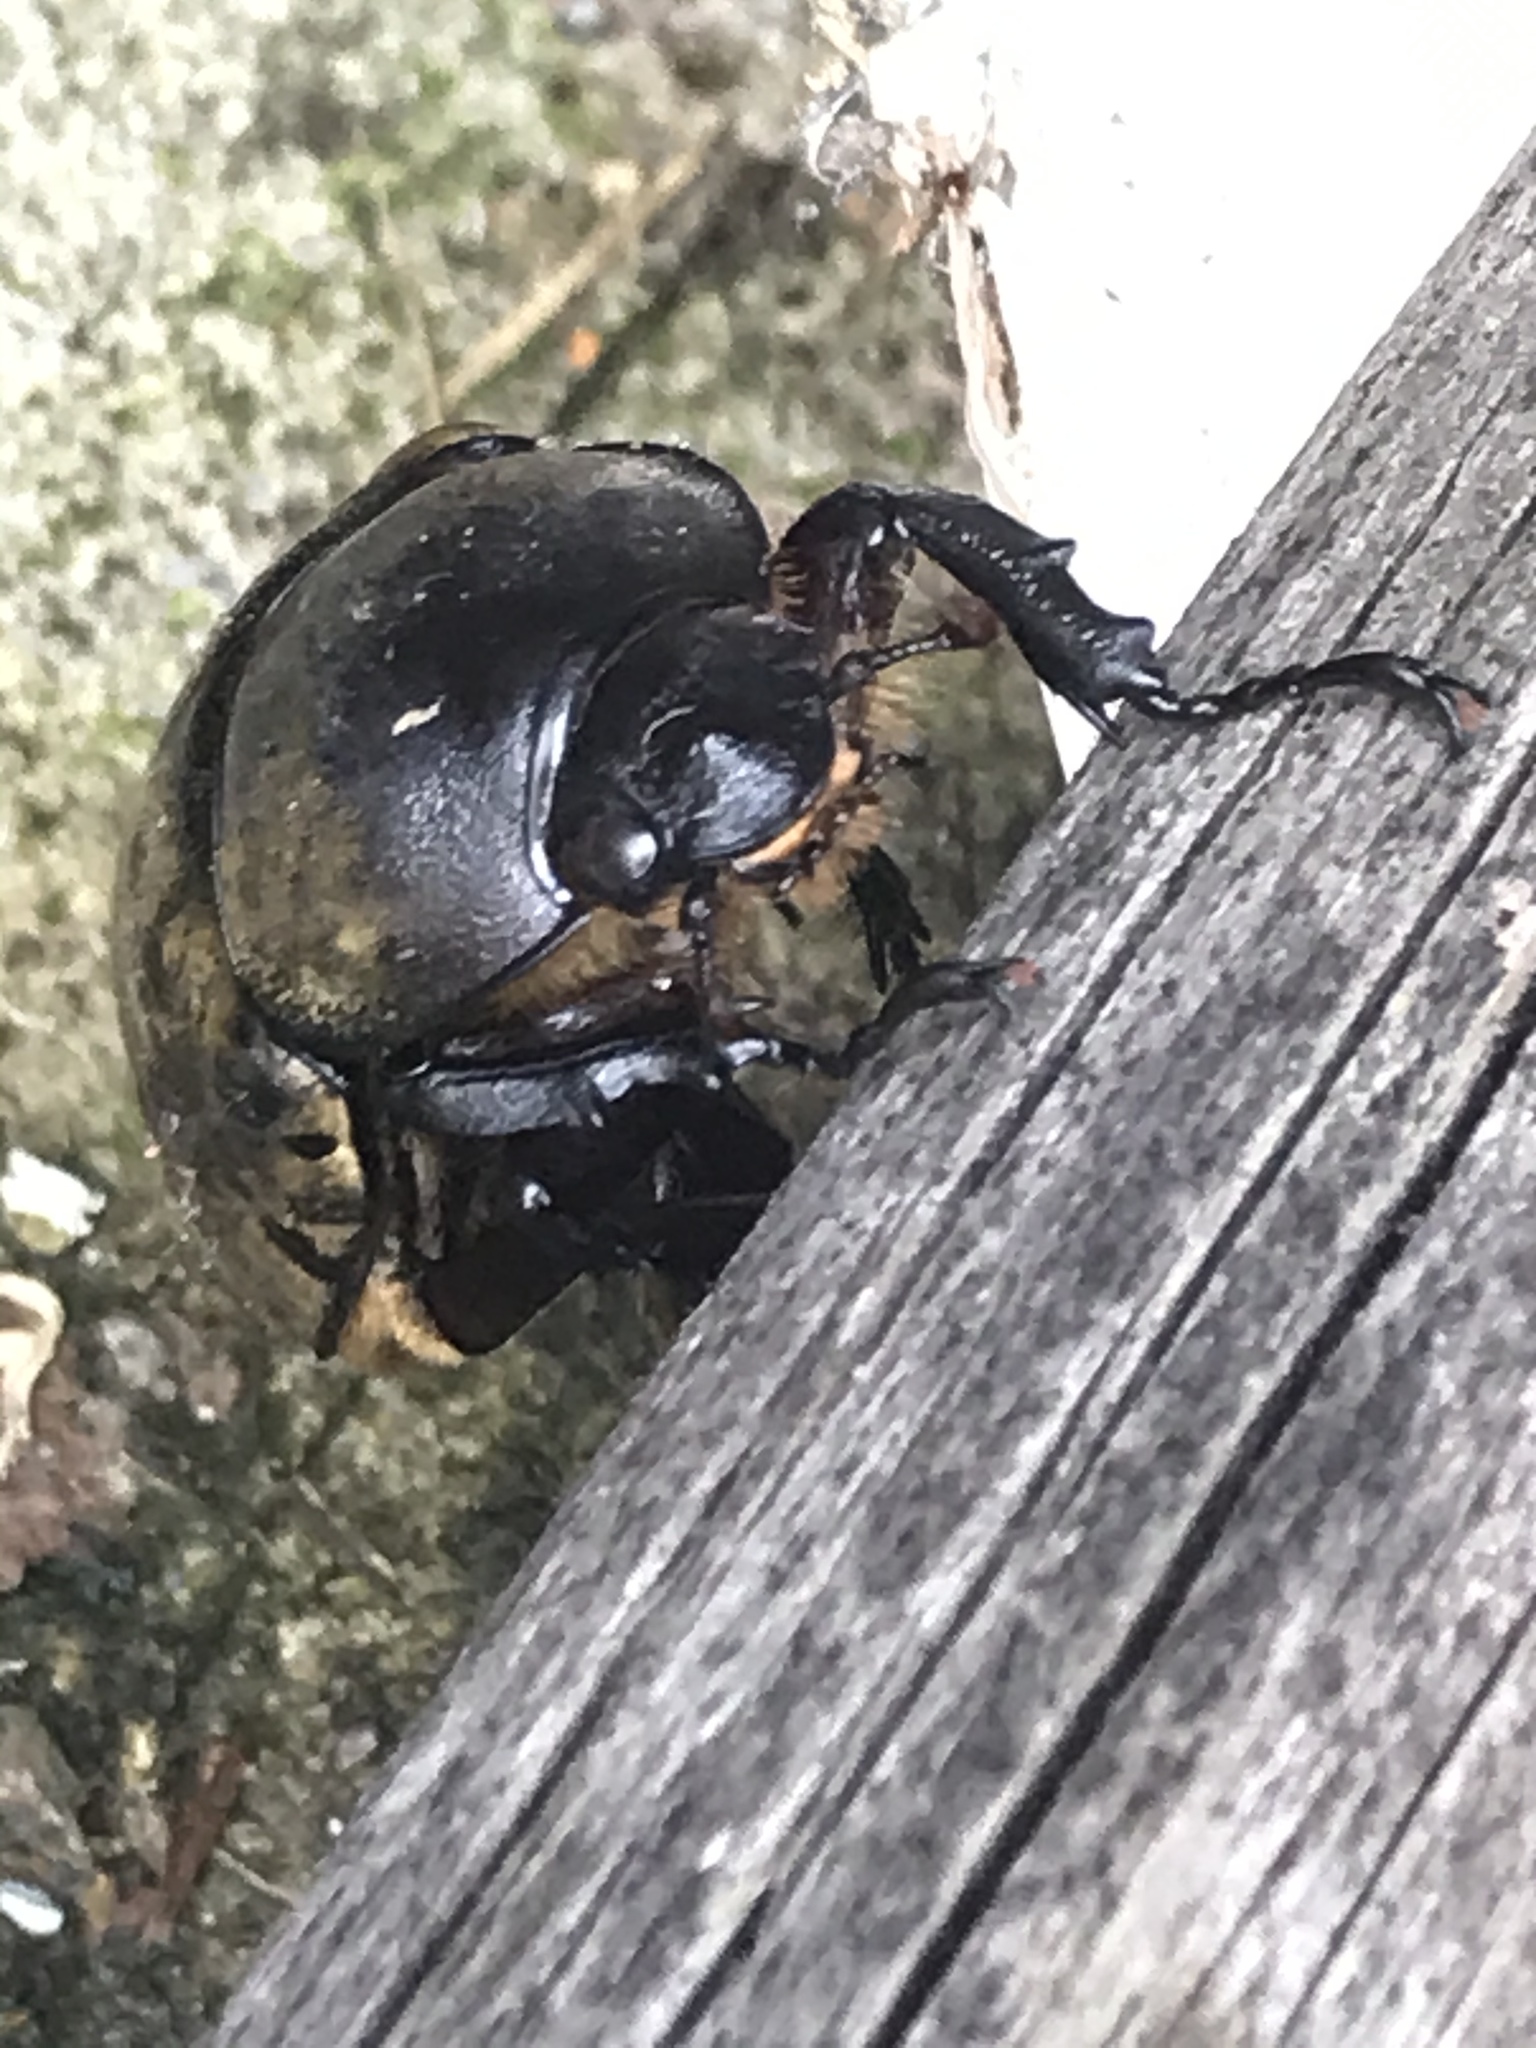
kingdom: Animalia
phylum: Arthropoda
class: Insecta
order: Coleoptera
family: Scarabaeidae
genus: Dynastes
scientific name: Dynastes tityus
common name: Eastern hercules beetle
